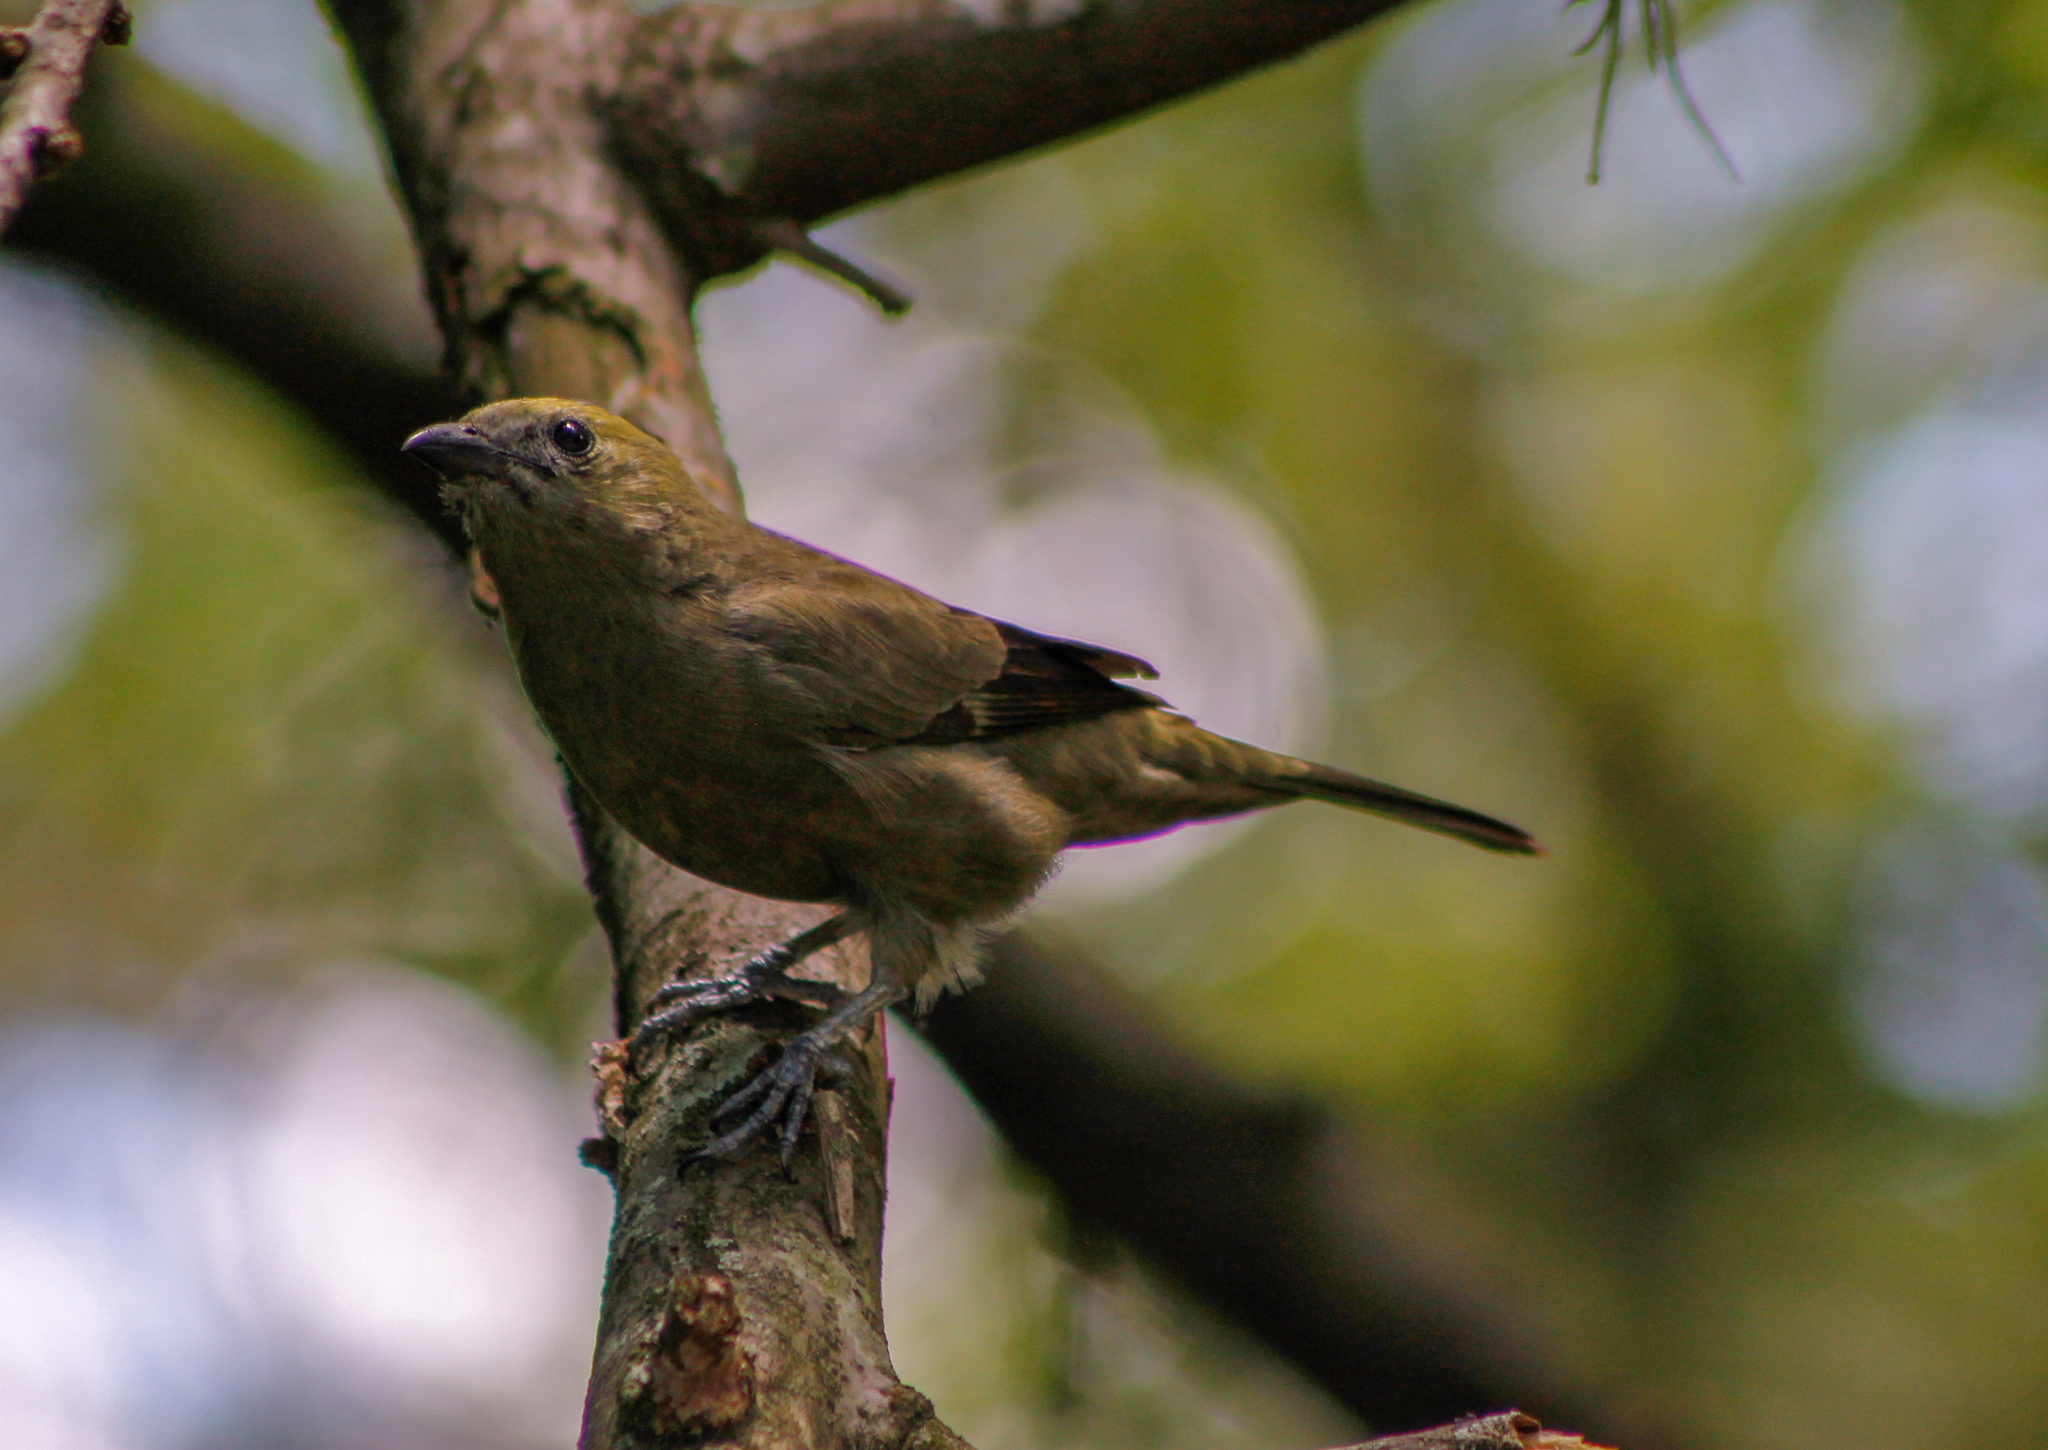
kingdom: Animalia
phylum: Chordata
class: Aves
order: Passeriformes
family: Thraupidae
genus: Thraupis
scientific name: Thraupis palmarum
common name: Palm tanager
